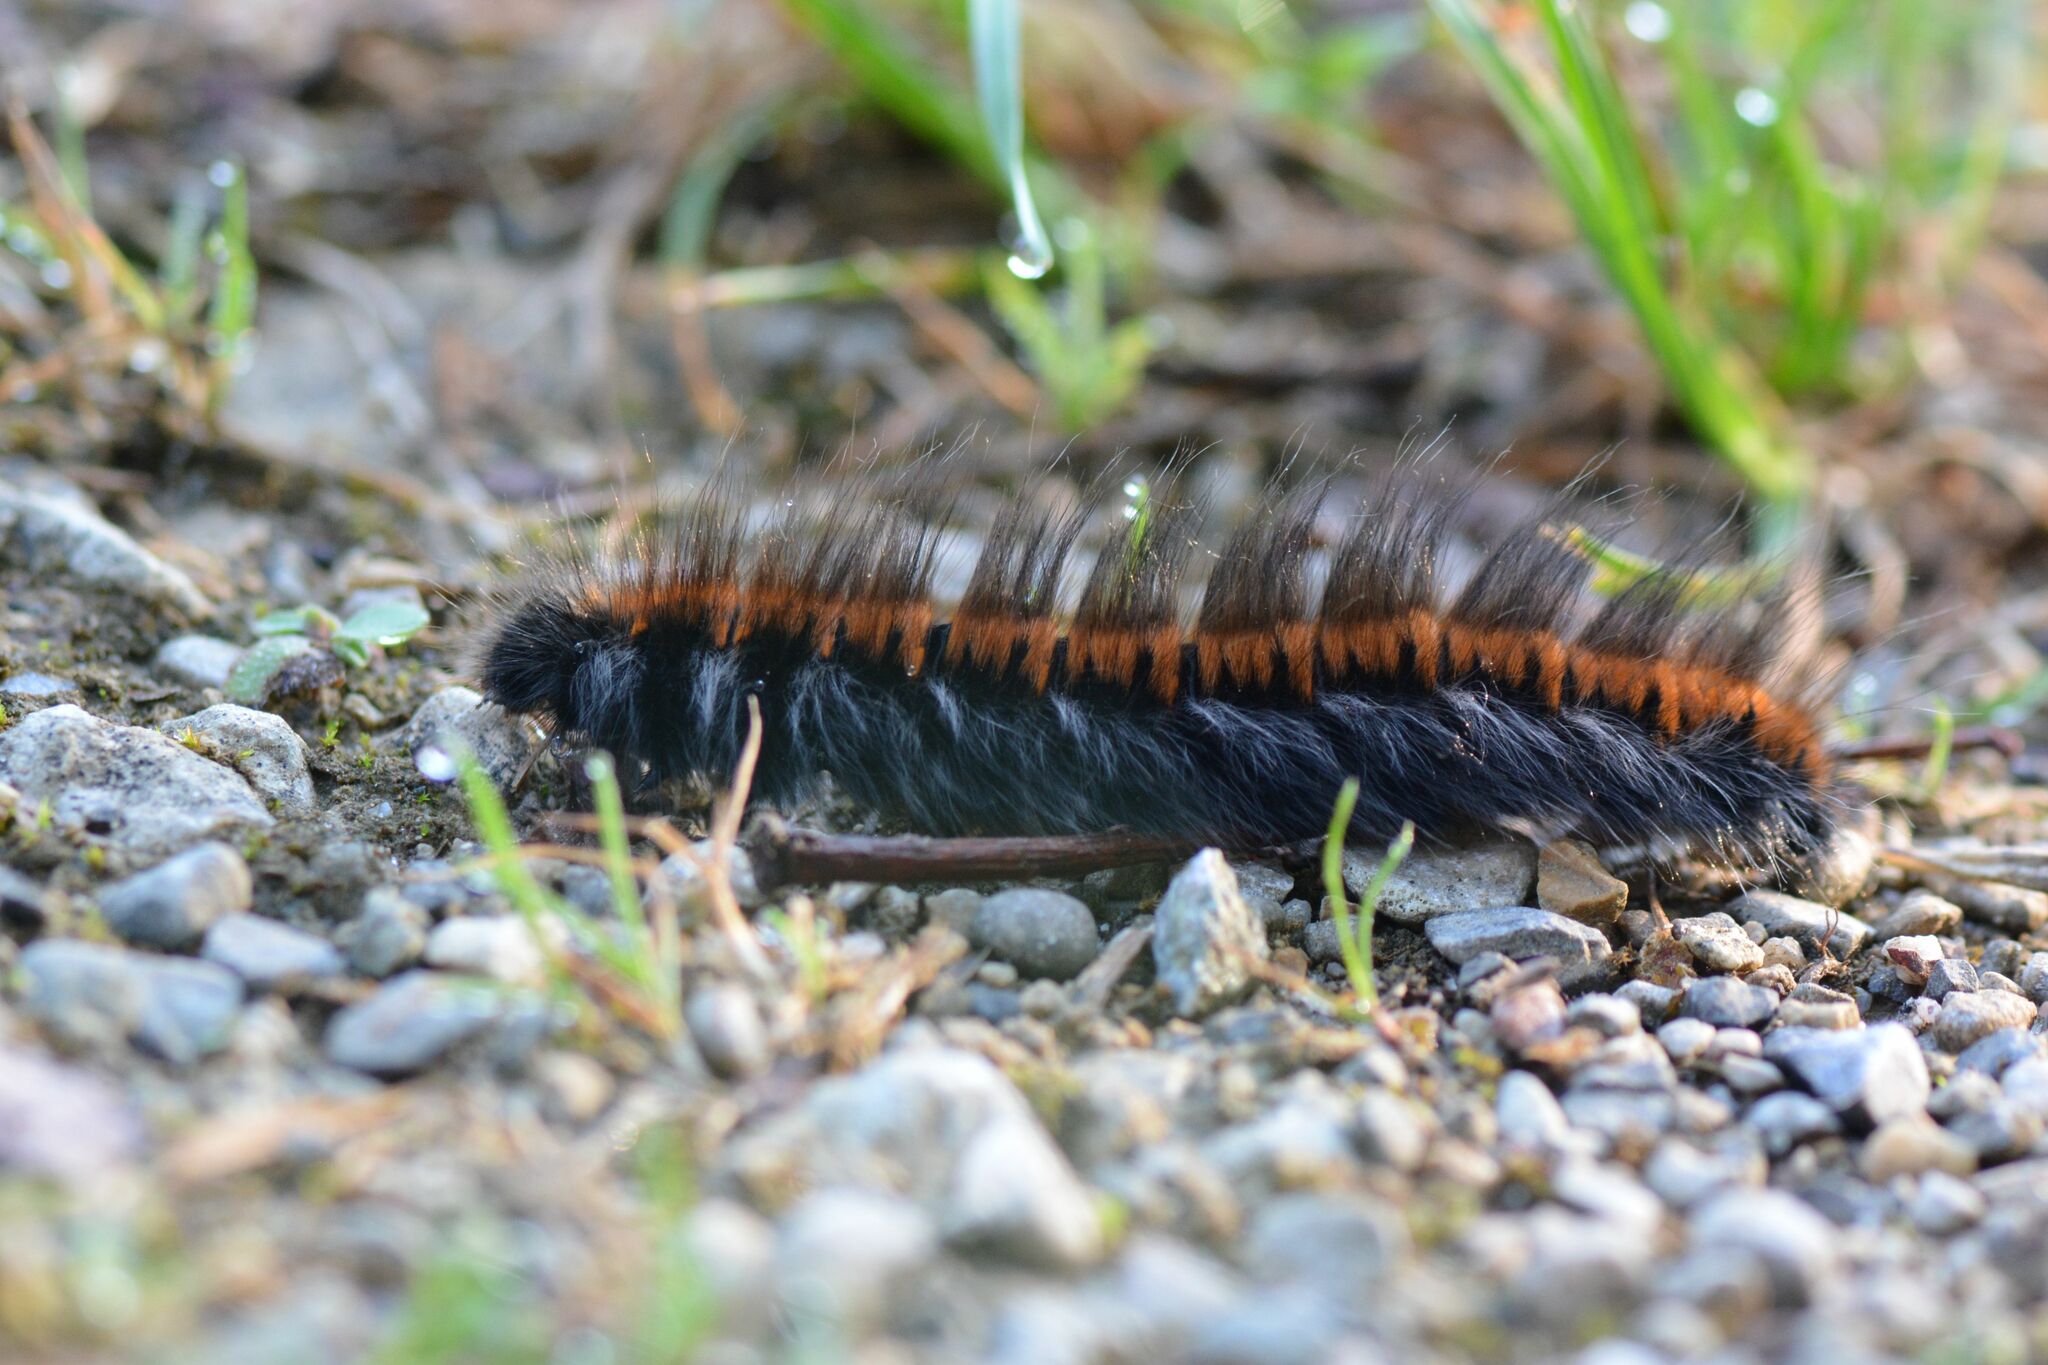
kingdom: Animalia
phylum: Arthropoda
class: Insecta
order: Lepidoptera
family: Lasiocampidae
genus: Macrothylacia
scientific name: Macrothylacia rubi
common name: Fox moth
